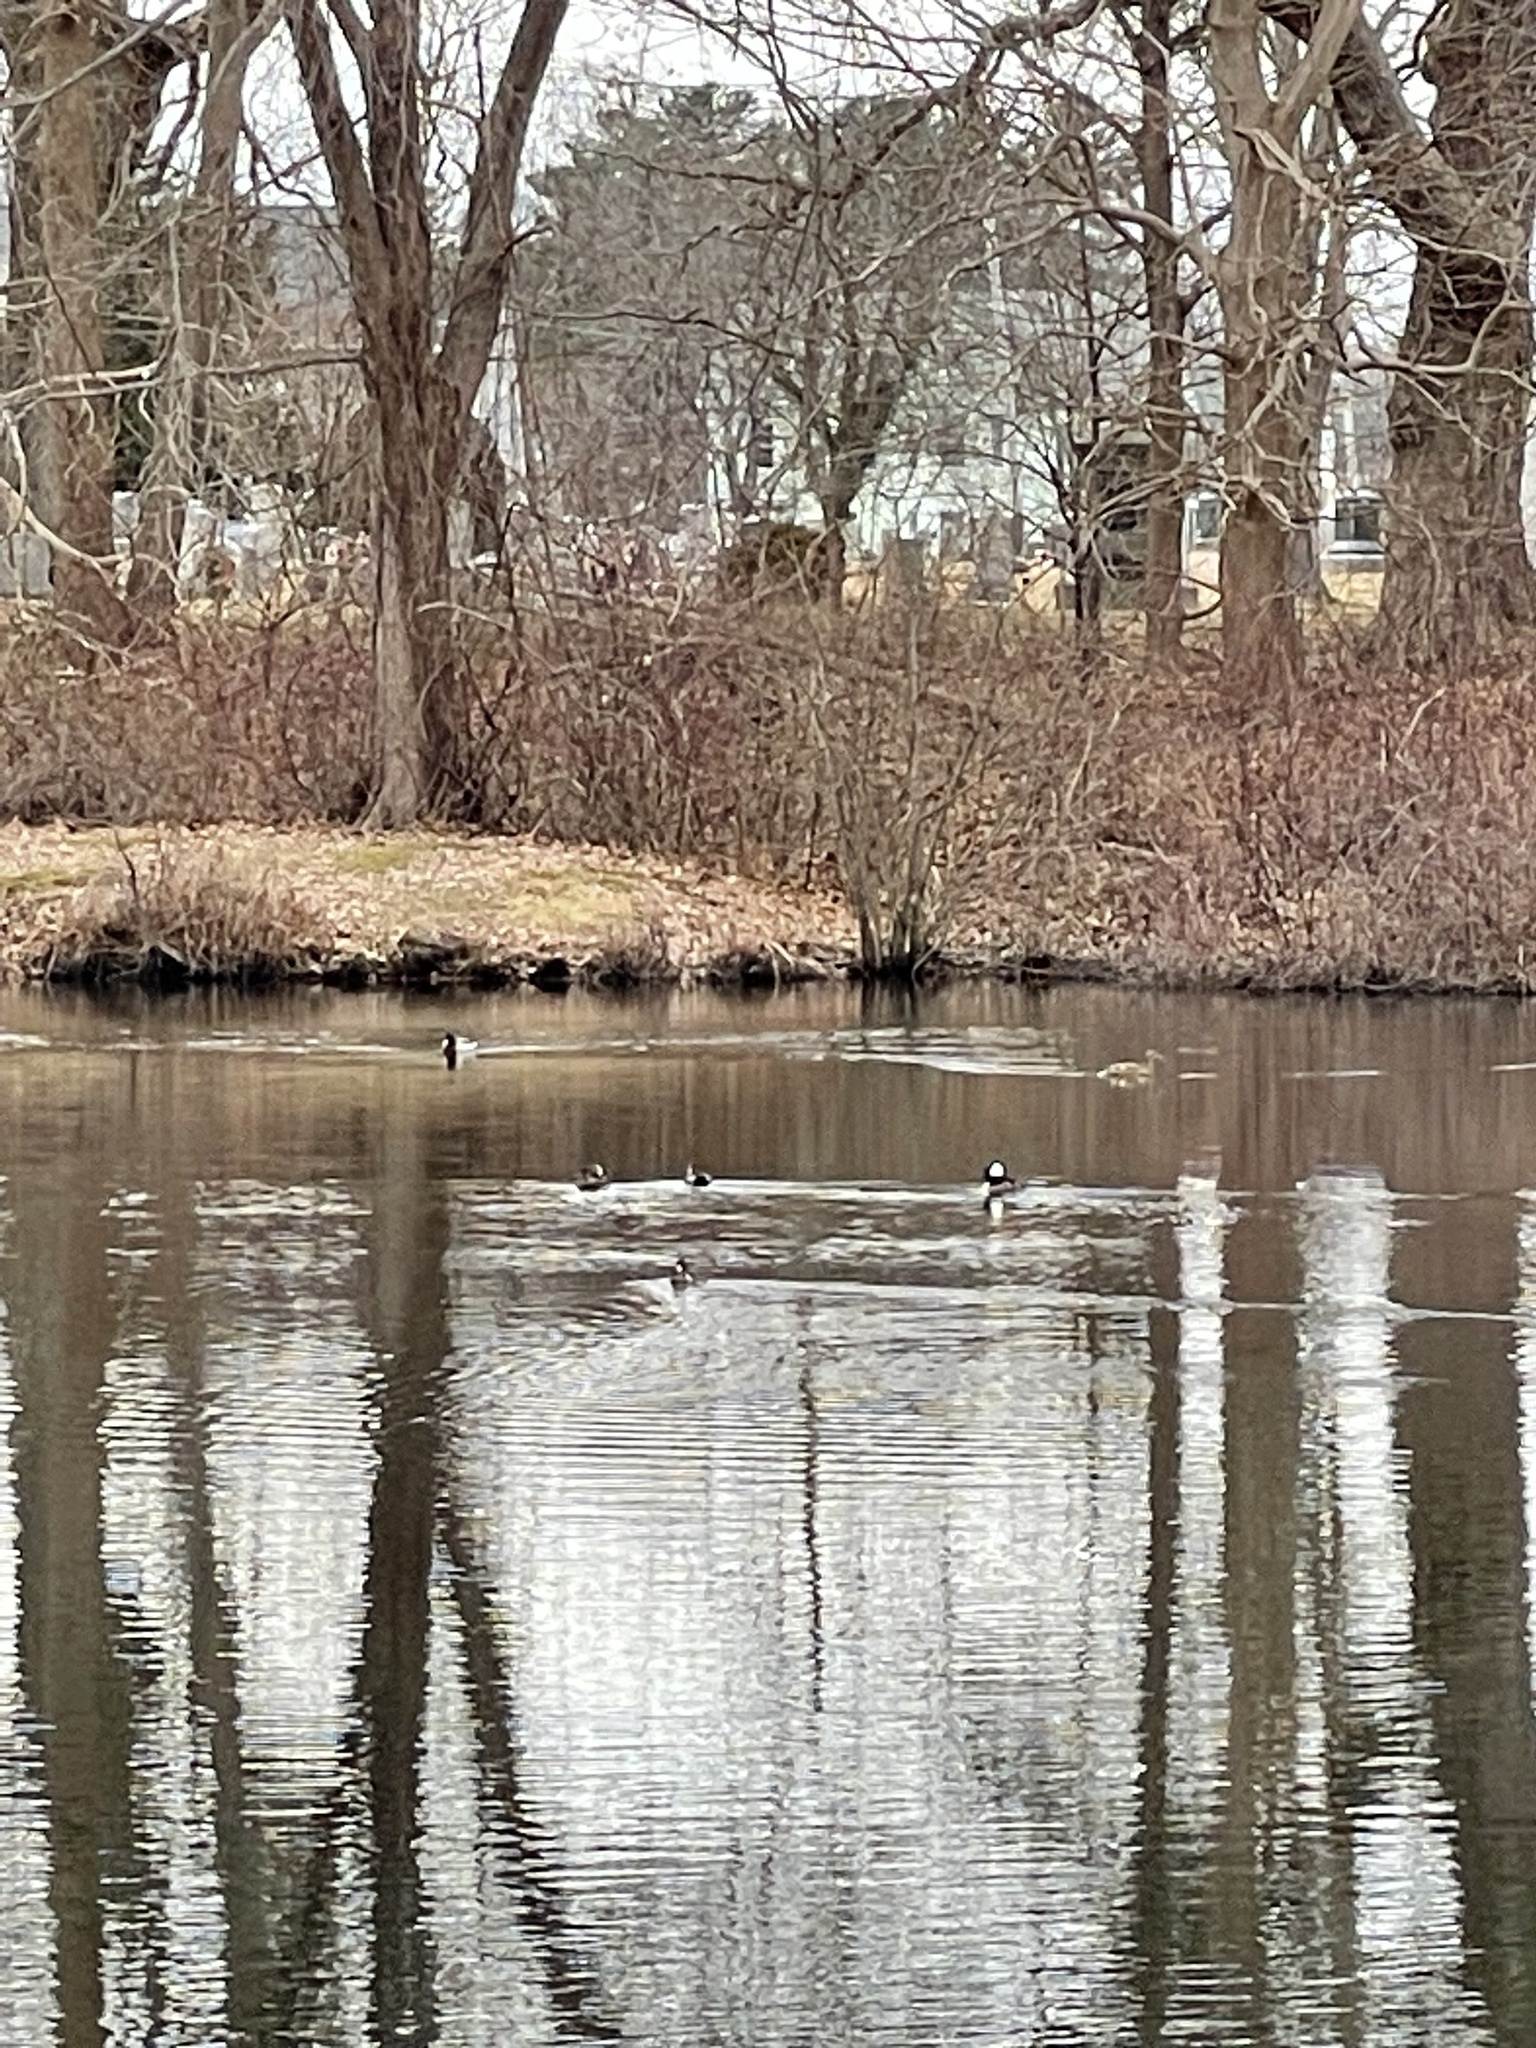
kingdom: Animalia
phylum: Chordata
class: Aves
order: Anseriformes
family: Anatidae
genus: Lophodytes
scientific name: Lophodytes cucullatus
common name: Hooded merganser
